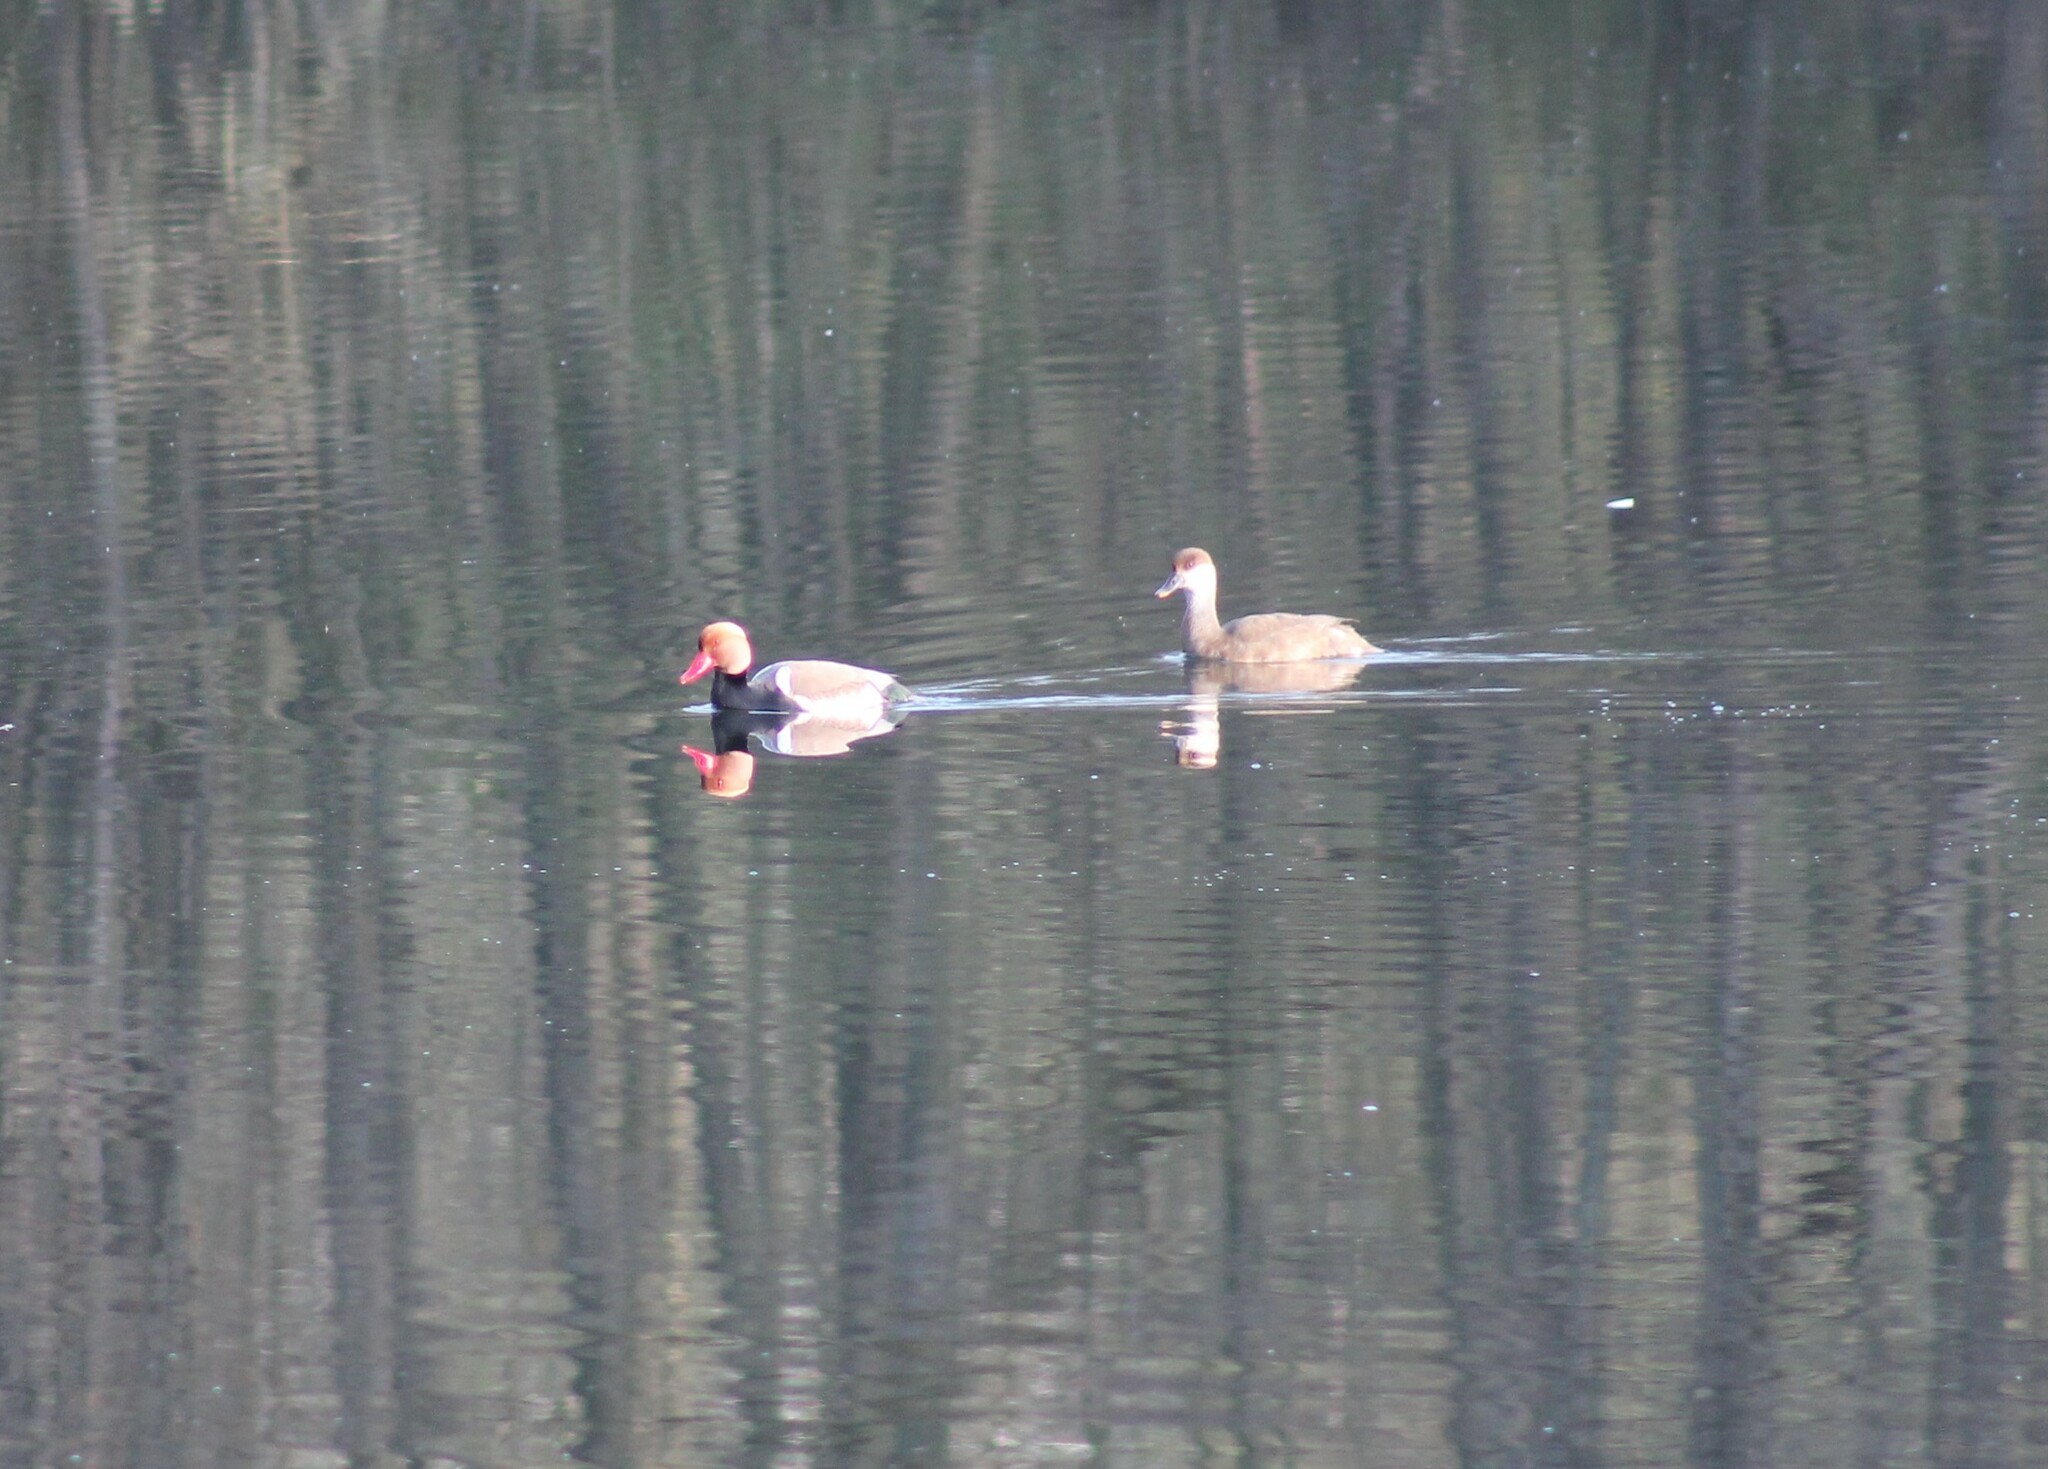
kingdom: Animalia
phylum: Chordata
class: Aves
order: Anseriformes
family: Anatidae
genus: Netta
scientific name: Netta rufina
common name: Red-crested pochard
